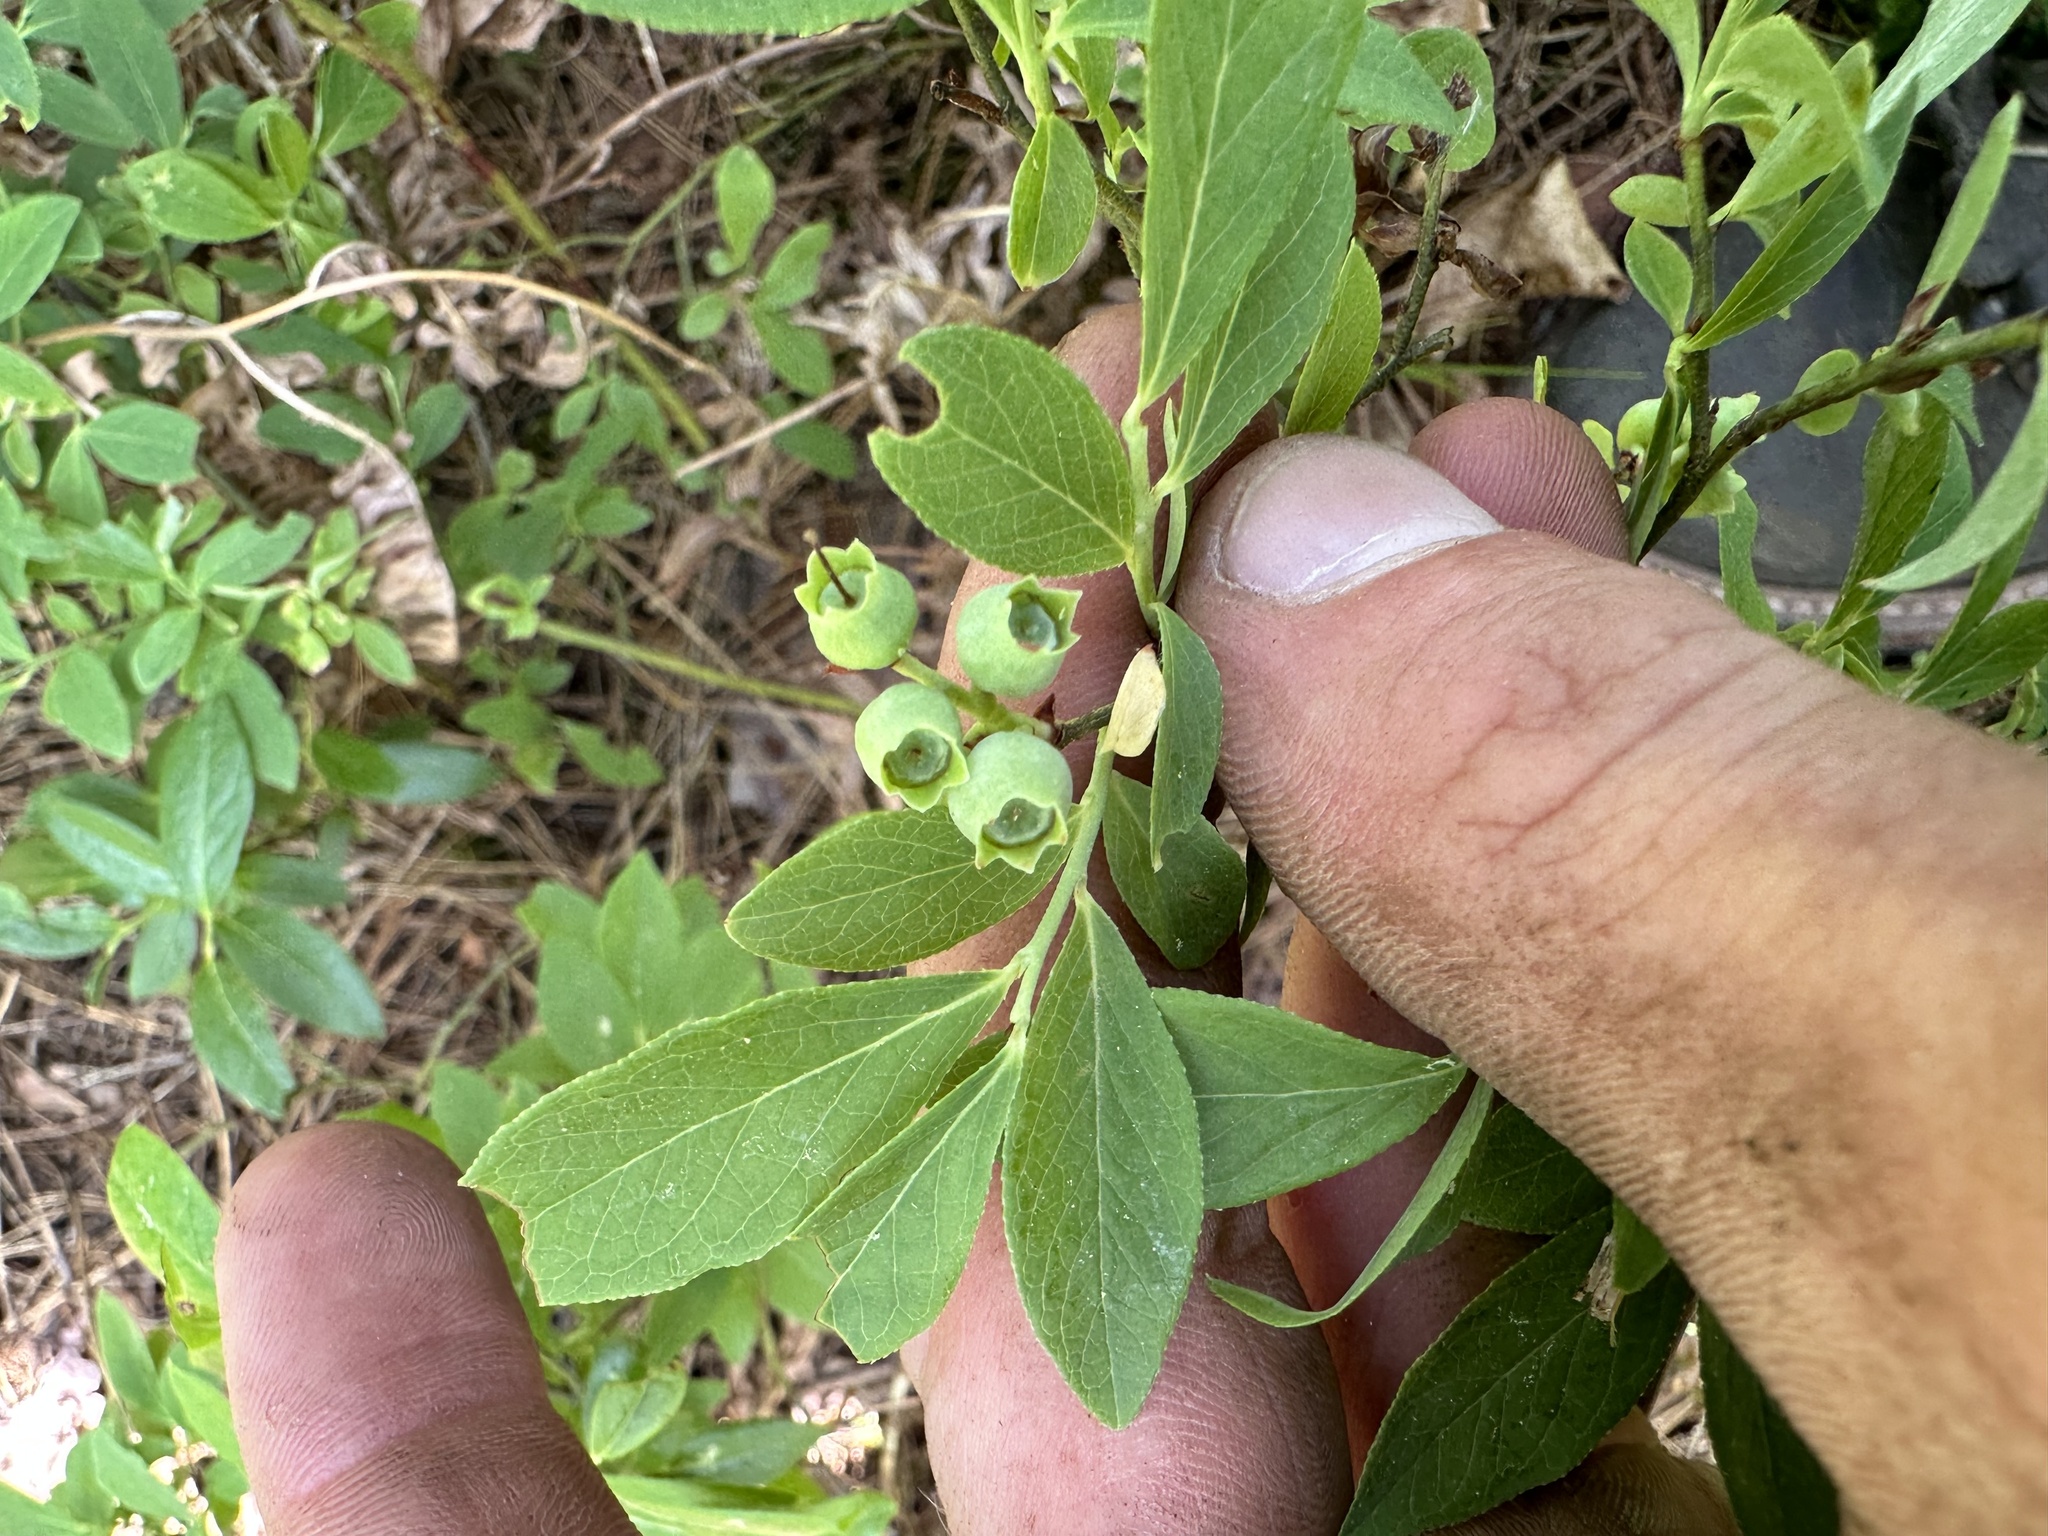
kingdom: Plantae
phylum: Tracheophyta
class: Magnoliopsida
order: Ericales
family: Ericaceae
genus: Vaccinium
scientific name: Vaccinium angustifolium
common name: Early lowbush blueberry
